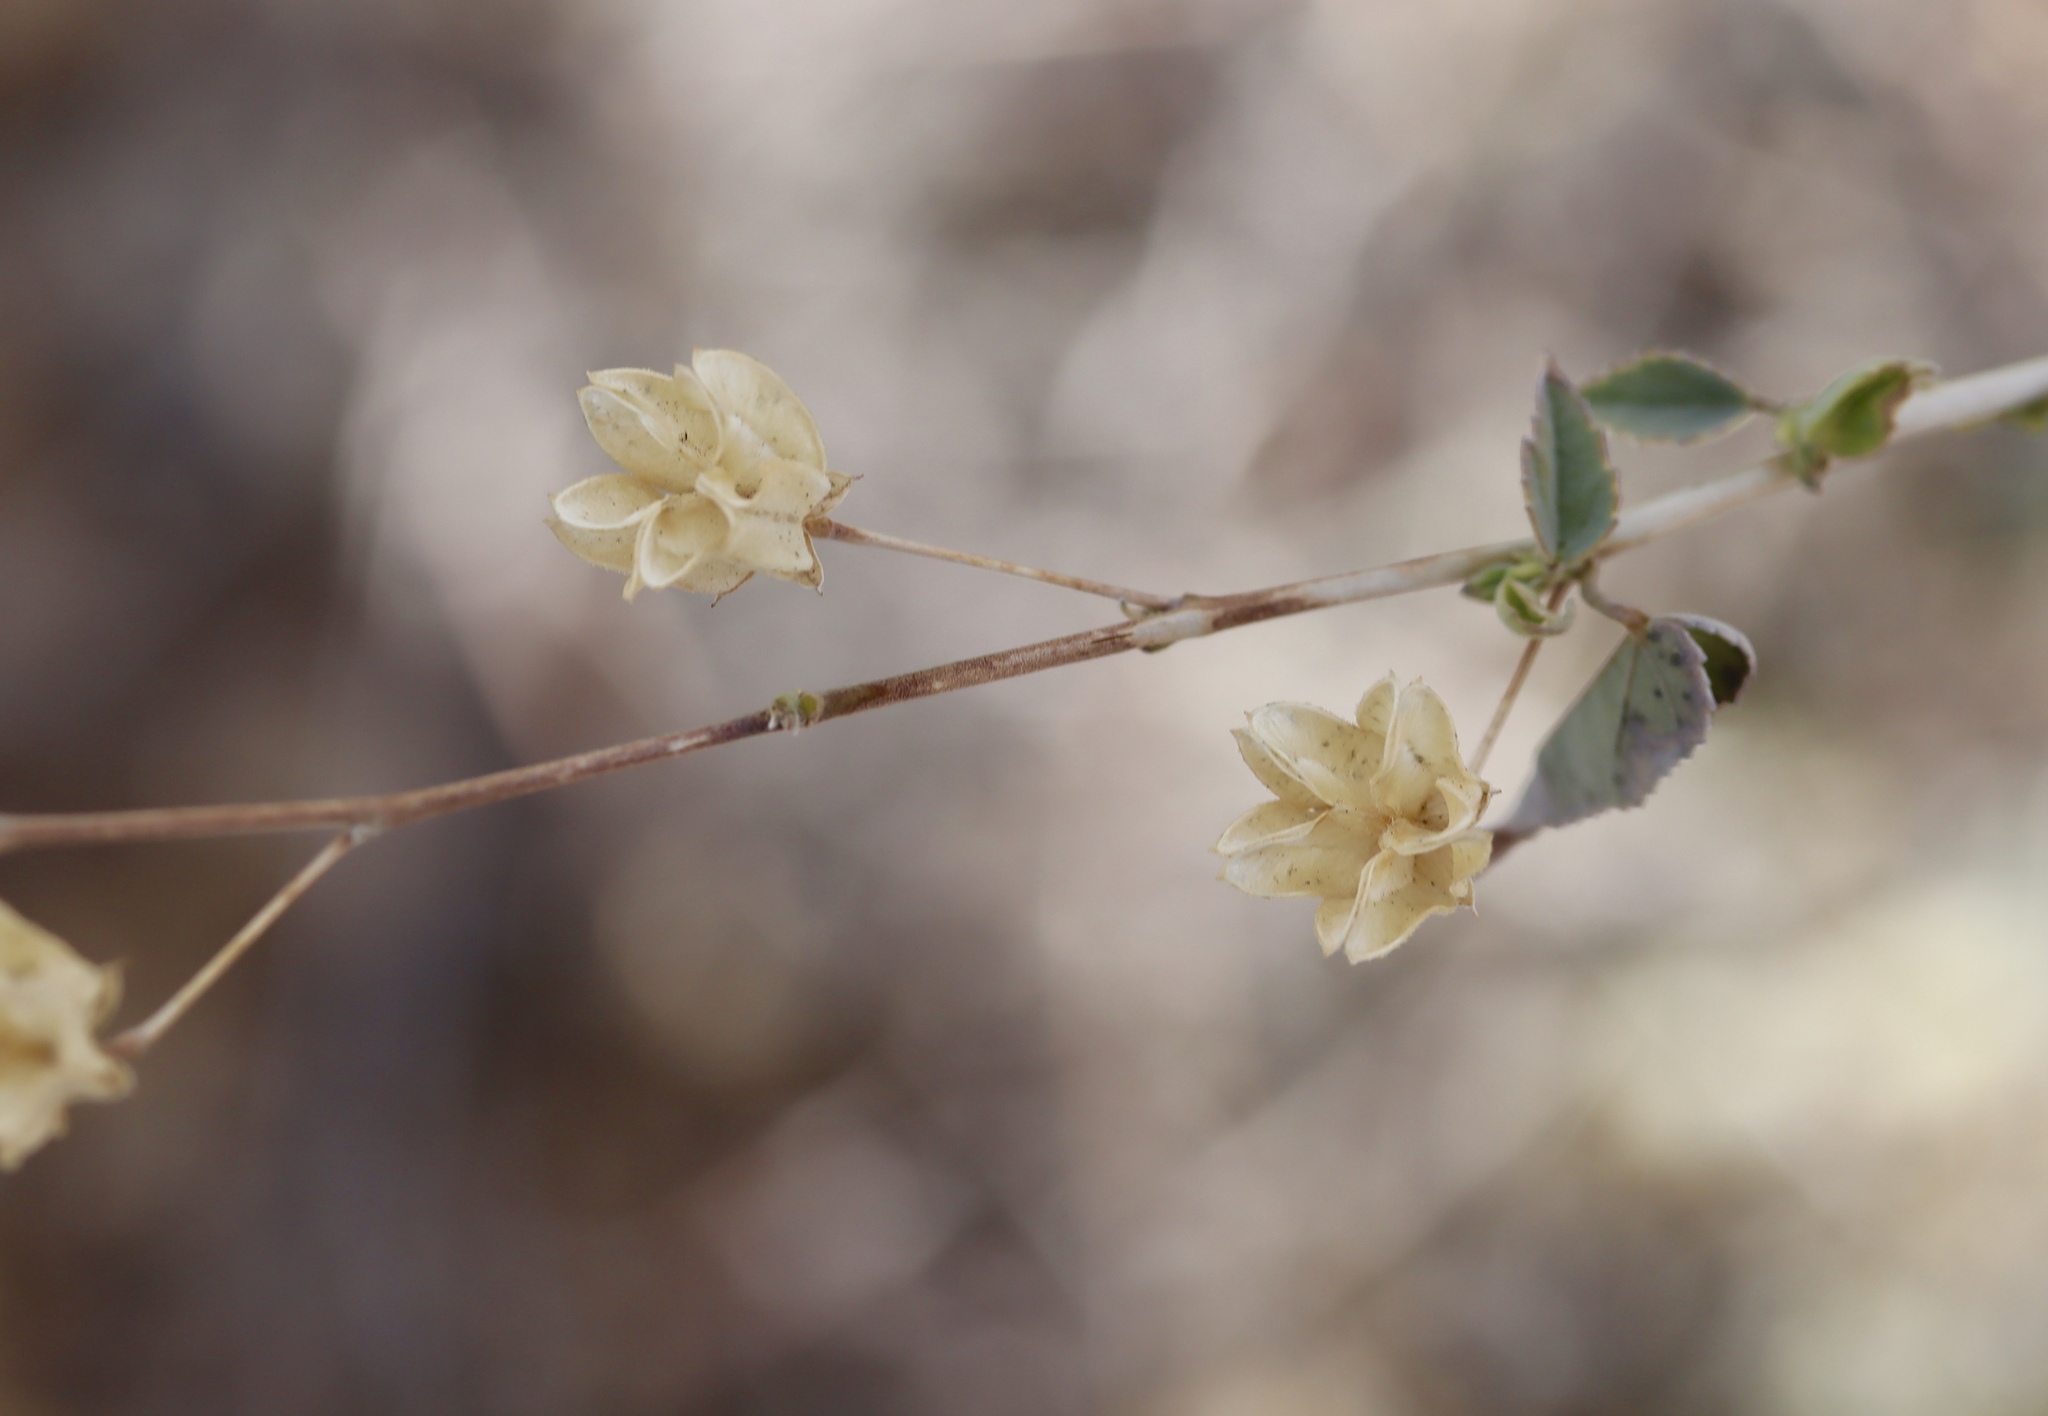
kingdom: Plantae
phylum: Tracheophyta
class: Magnoliopsida
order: Malvales
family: Malvaceae
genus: Abutilon
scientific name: Abutilon incanum
